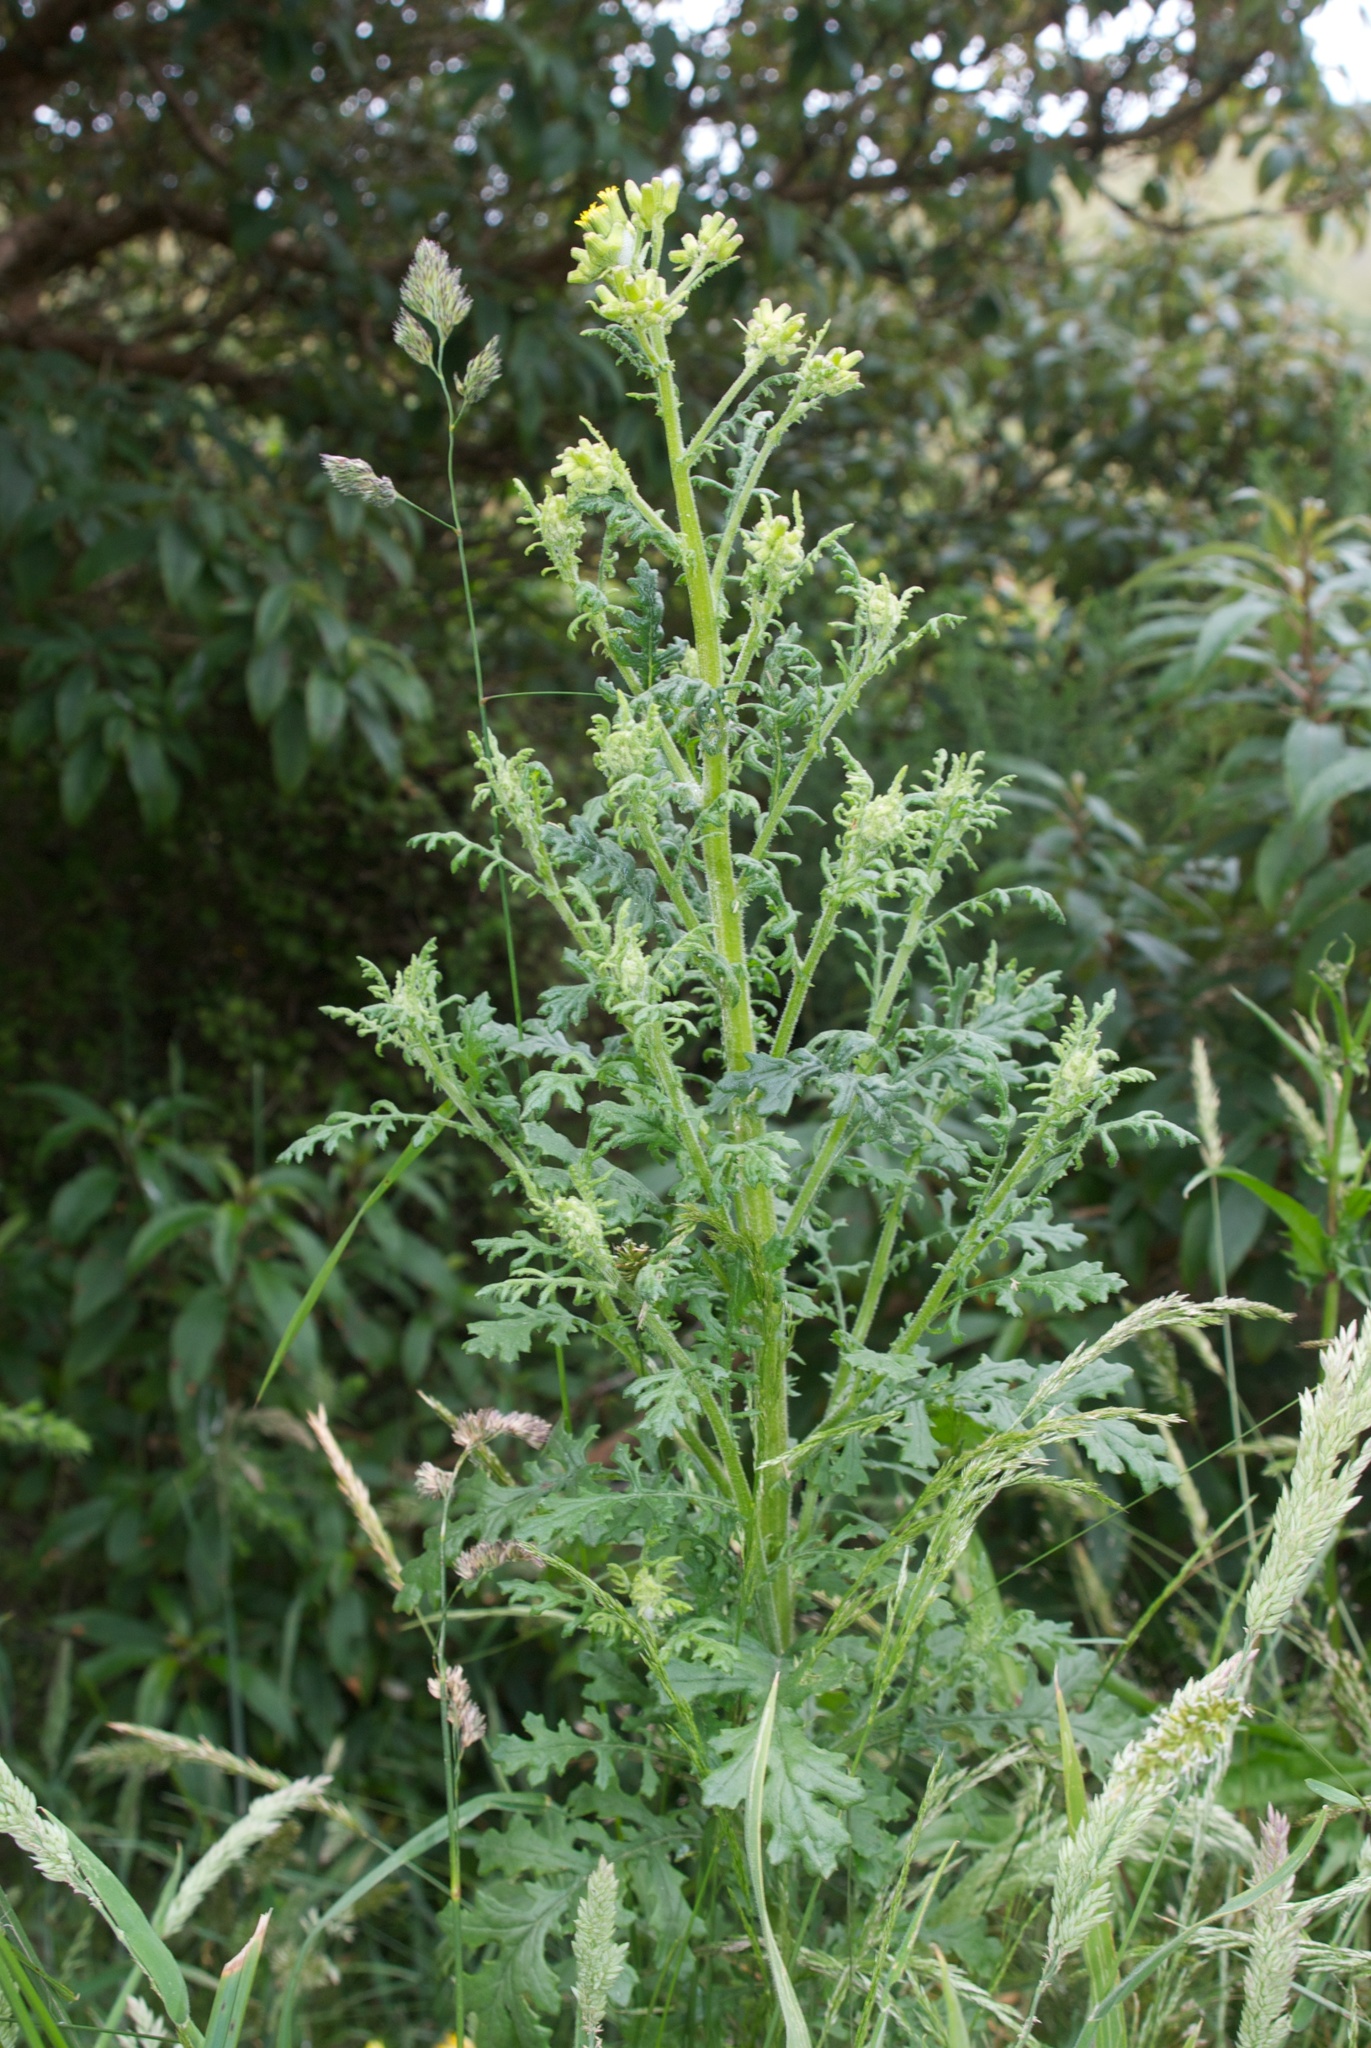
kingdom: Plantae
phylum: Tracheophyta
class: Magnoliopsida
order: Asterales
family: Asteraceae
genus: Senecio
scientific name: Senecio sylvaticus
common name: Woodland ragwort
